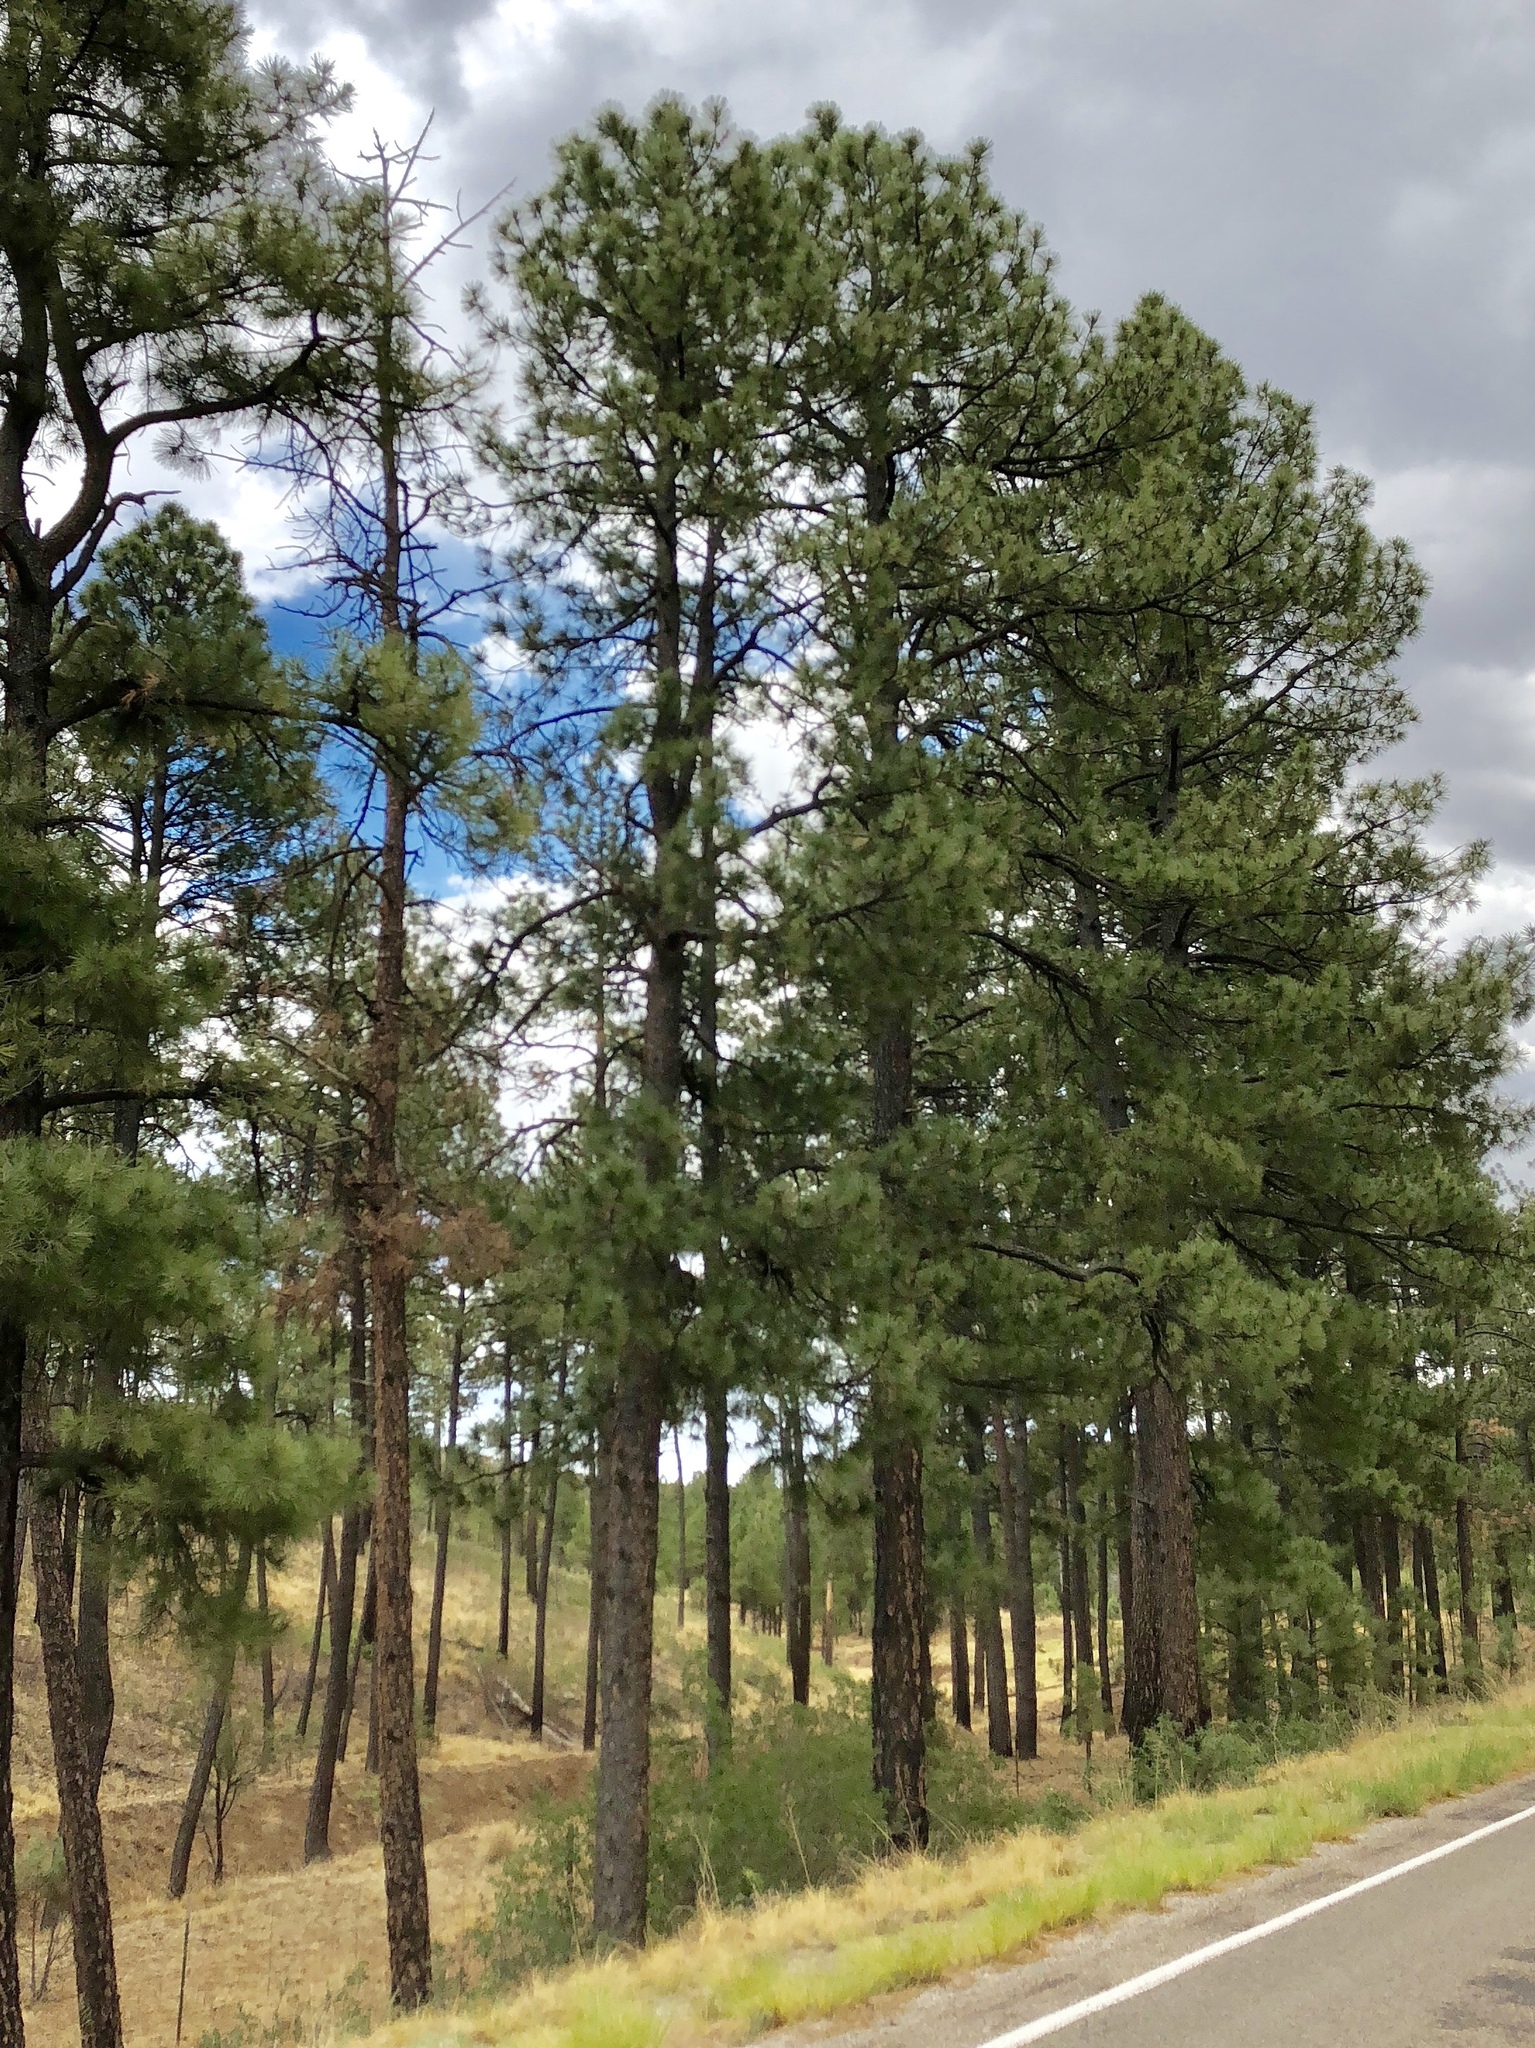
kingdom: Plantae
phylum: Tracheophyta
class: Pinopsida
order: Pinales
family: Pinaceae
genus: Pinus
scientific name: Pinus ponderosa
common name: Western yellow-pine
